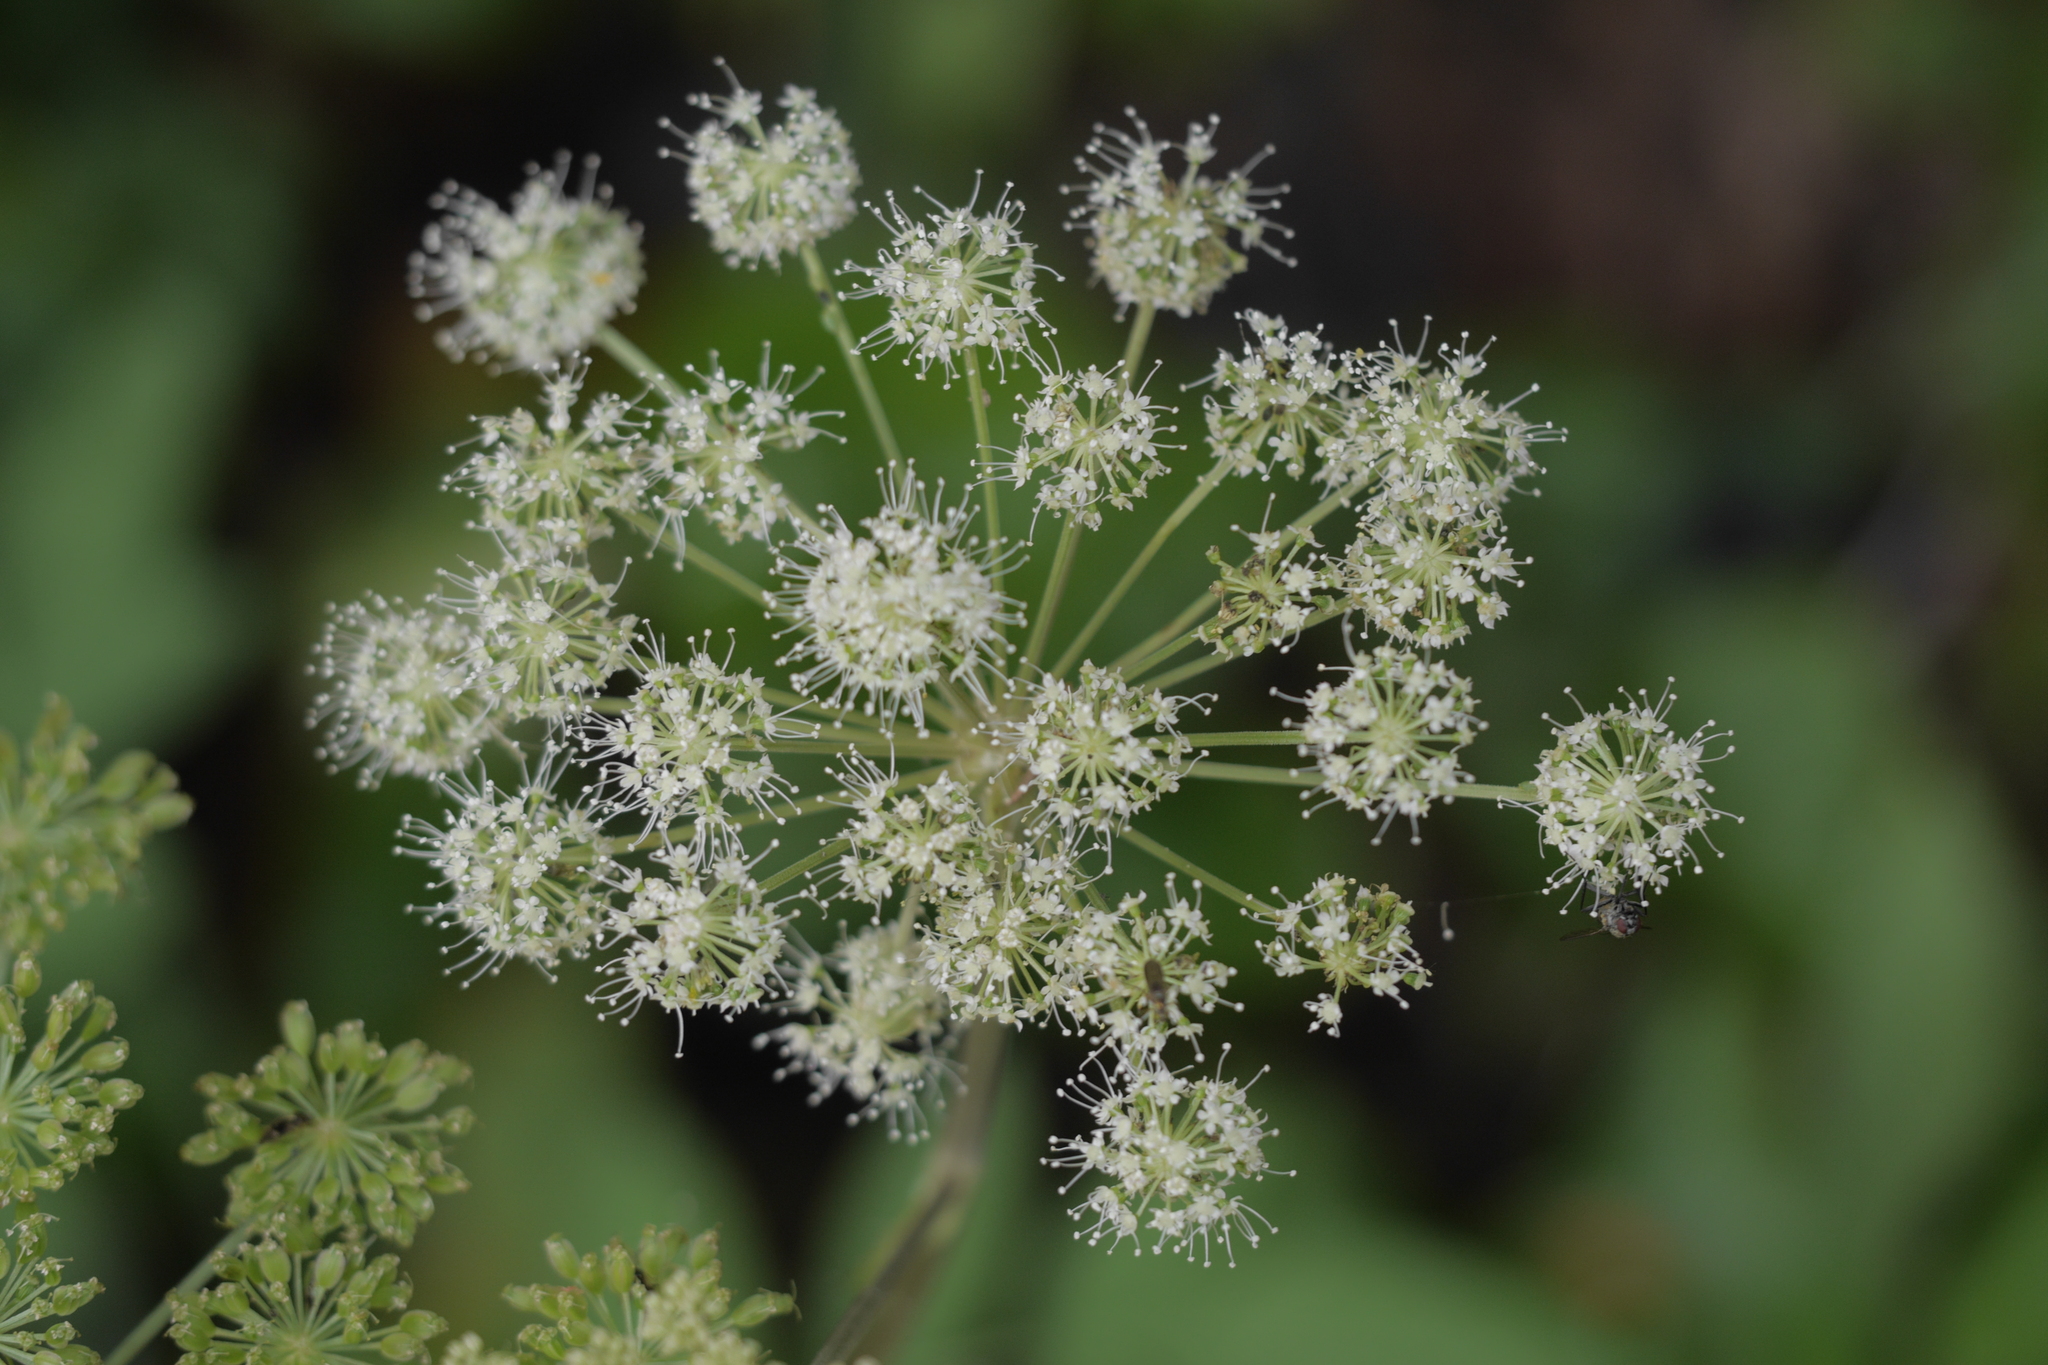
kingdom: Plantae
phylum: Tracheophyta
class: Magnoliopsida
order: Apiales
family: Apiaceae
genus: Angelica
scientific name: Angelica sylvestris
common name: Wild angelica
